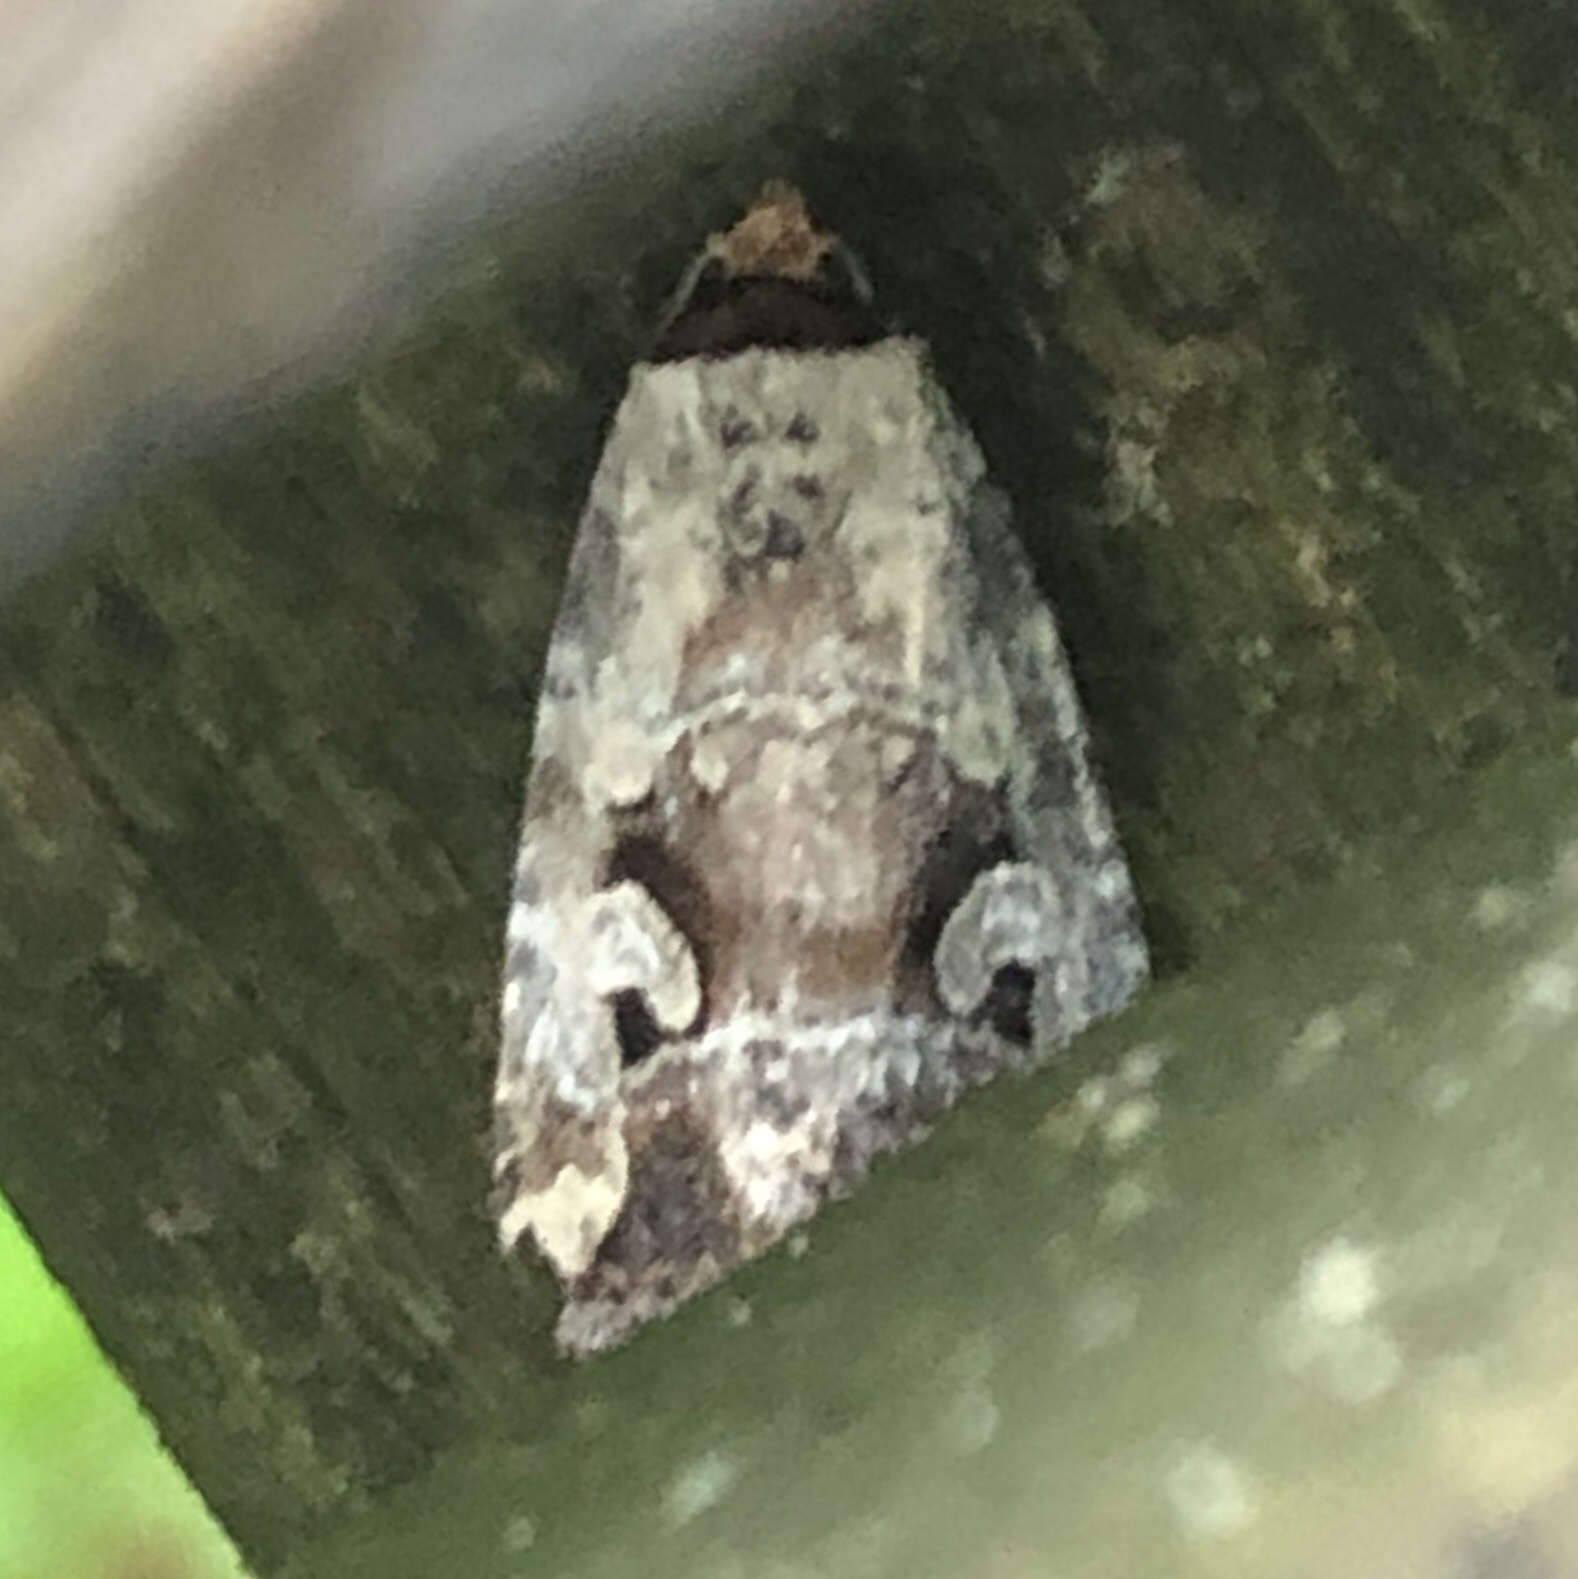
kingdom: Animalia
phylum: Arthropoda
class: Insecta
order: Lepidoptera
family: Noctuidae
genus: Elaphria
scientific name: Elaphria alapallida
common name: Pale-winged midget
